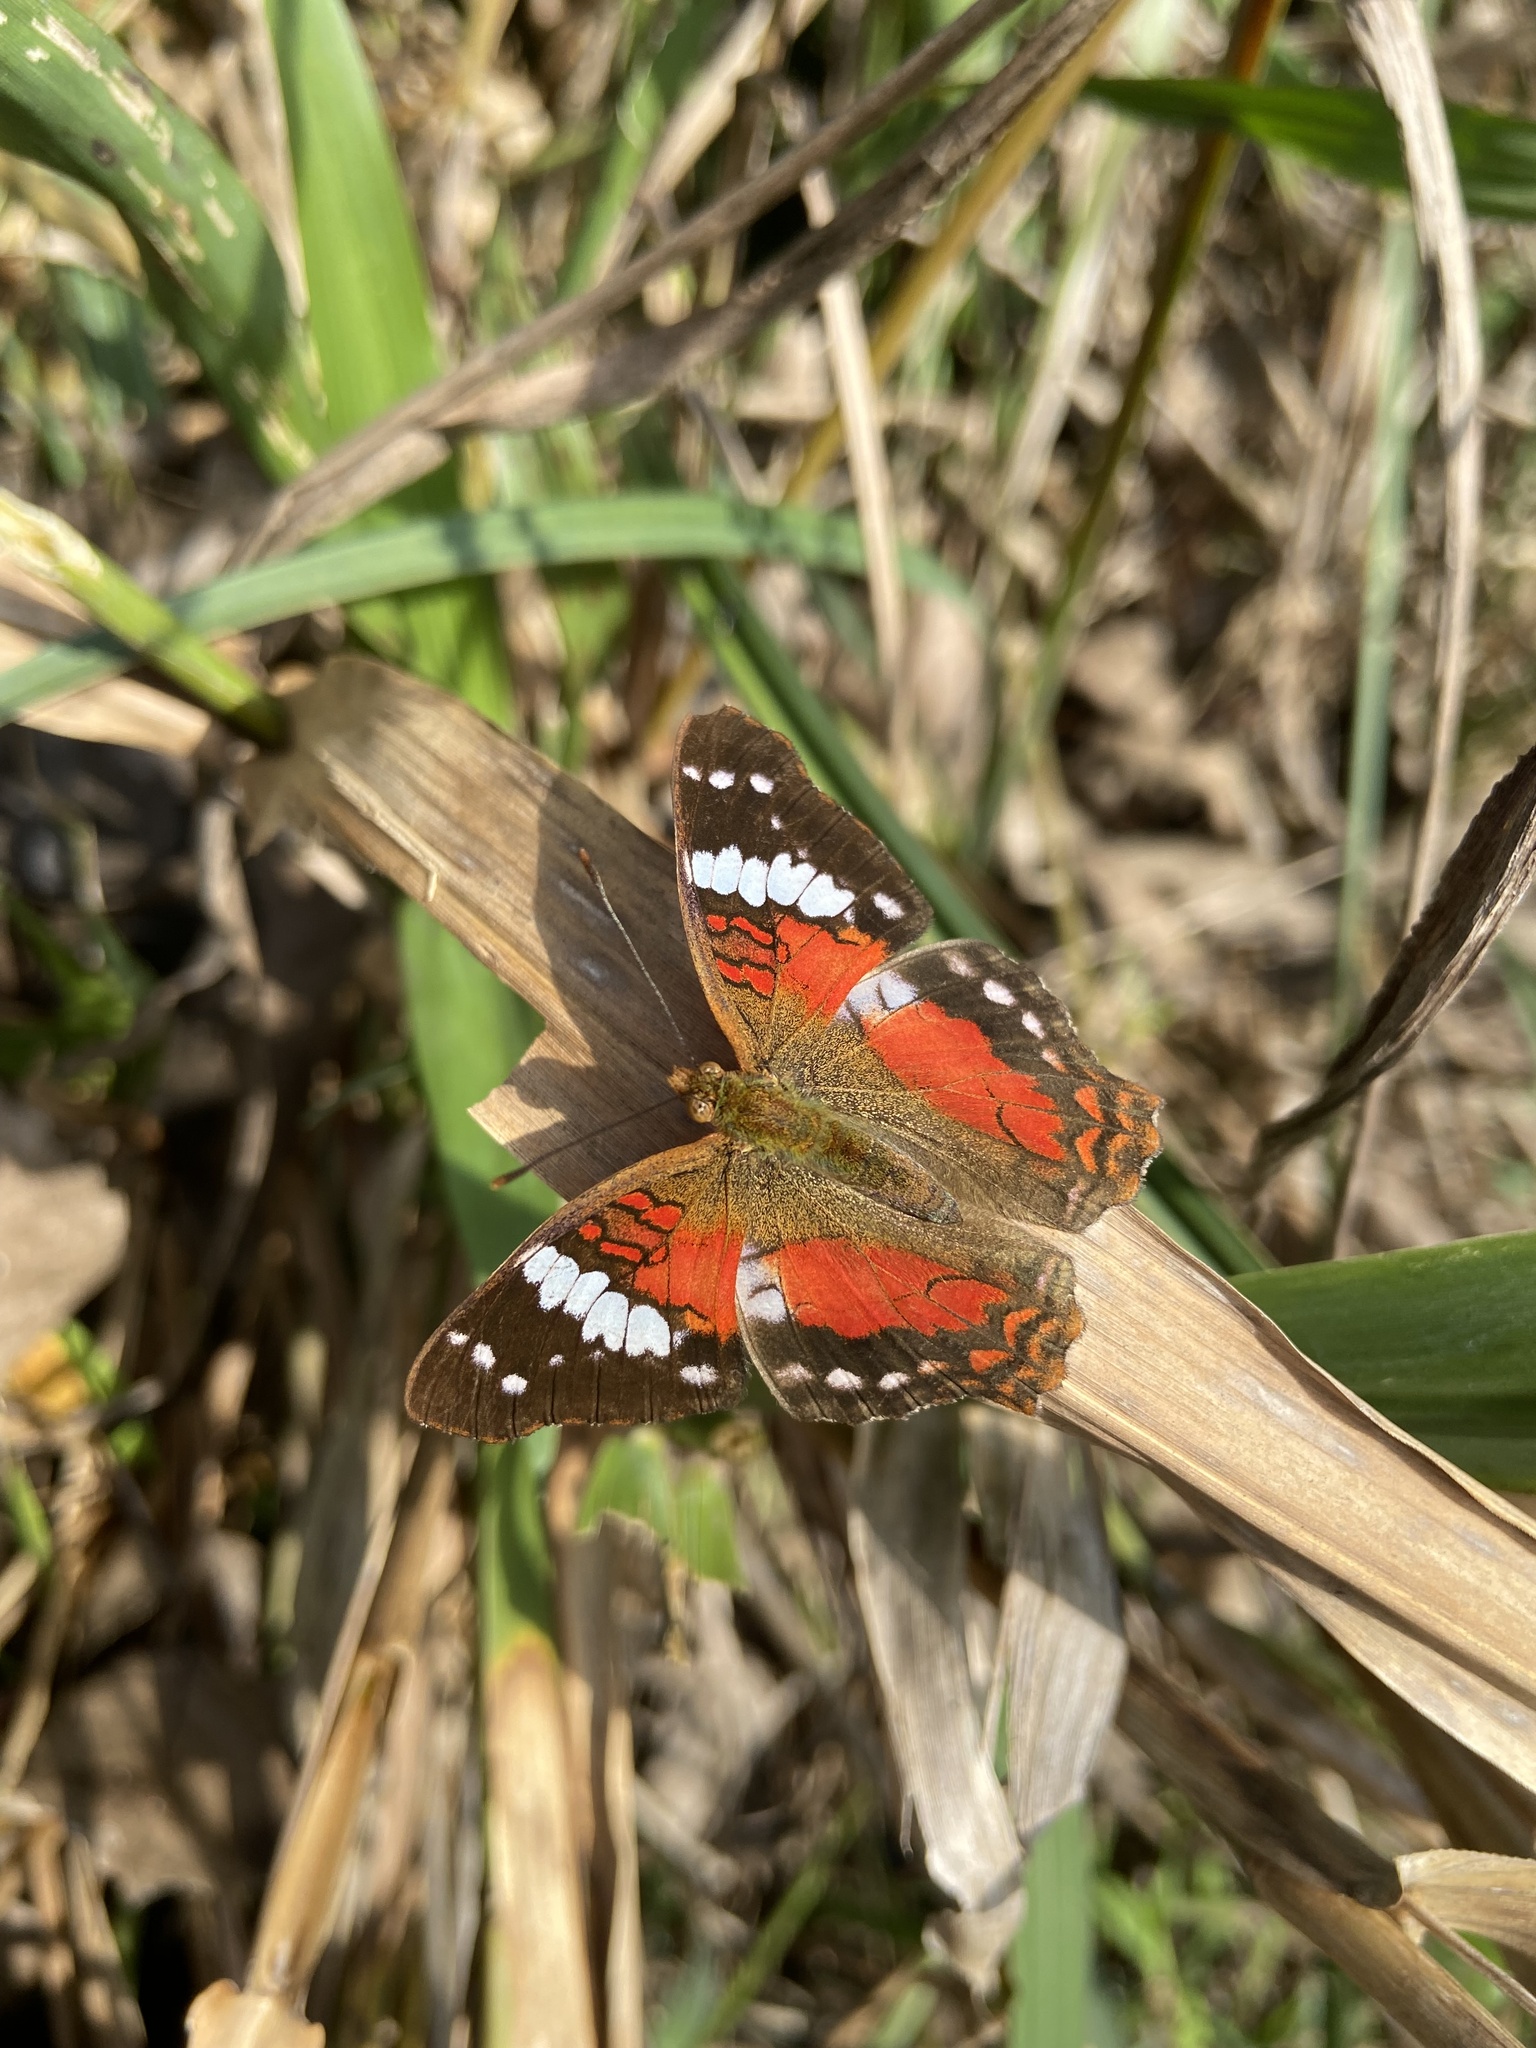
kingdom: Animalia
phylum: Arthropoda
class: Insecta
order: Lepidoptera
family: Nymphalidae
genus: Anartia
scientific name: Anartia amathea
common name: Red peacock
